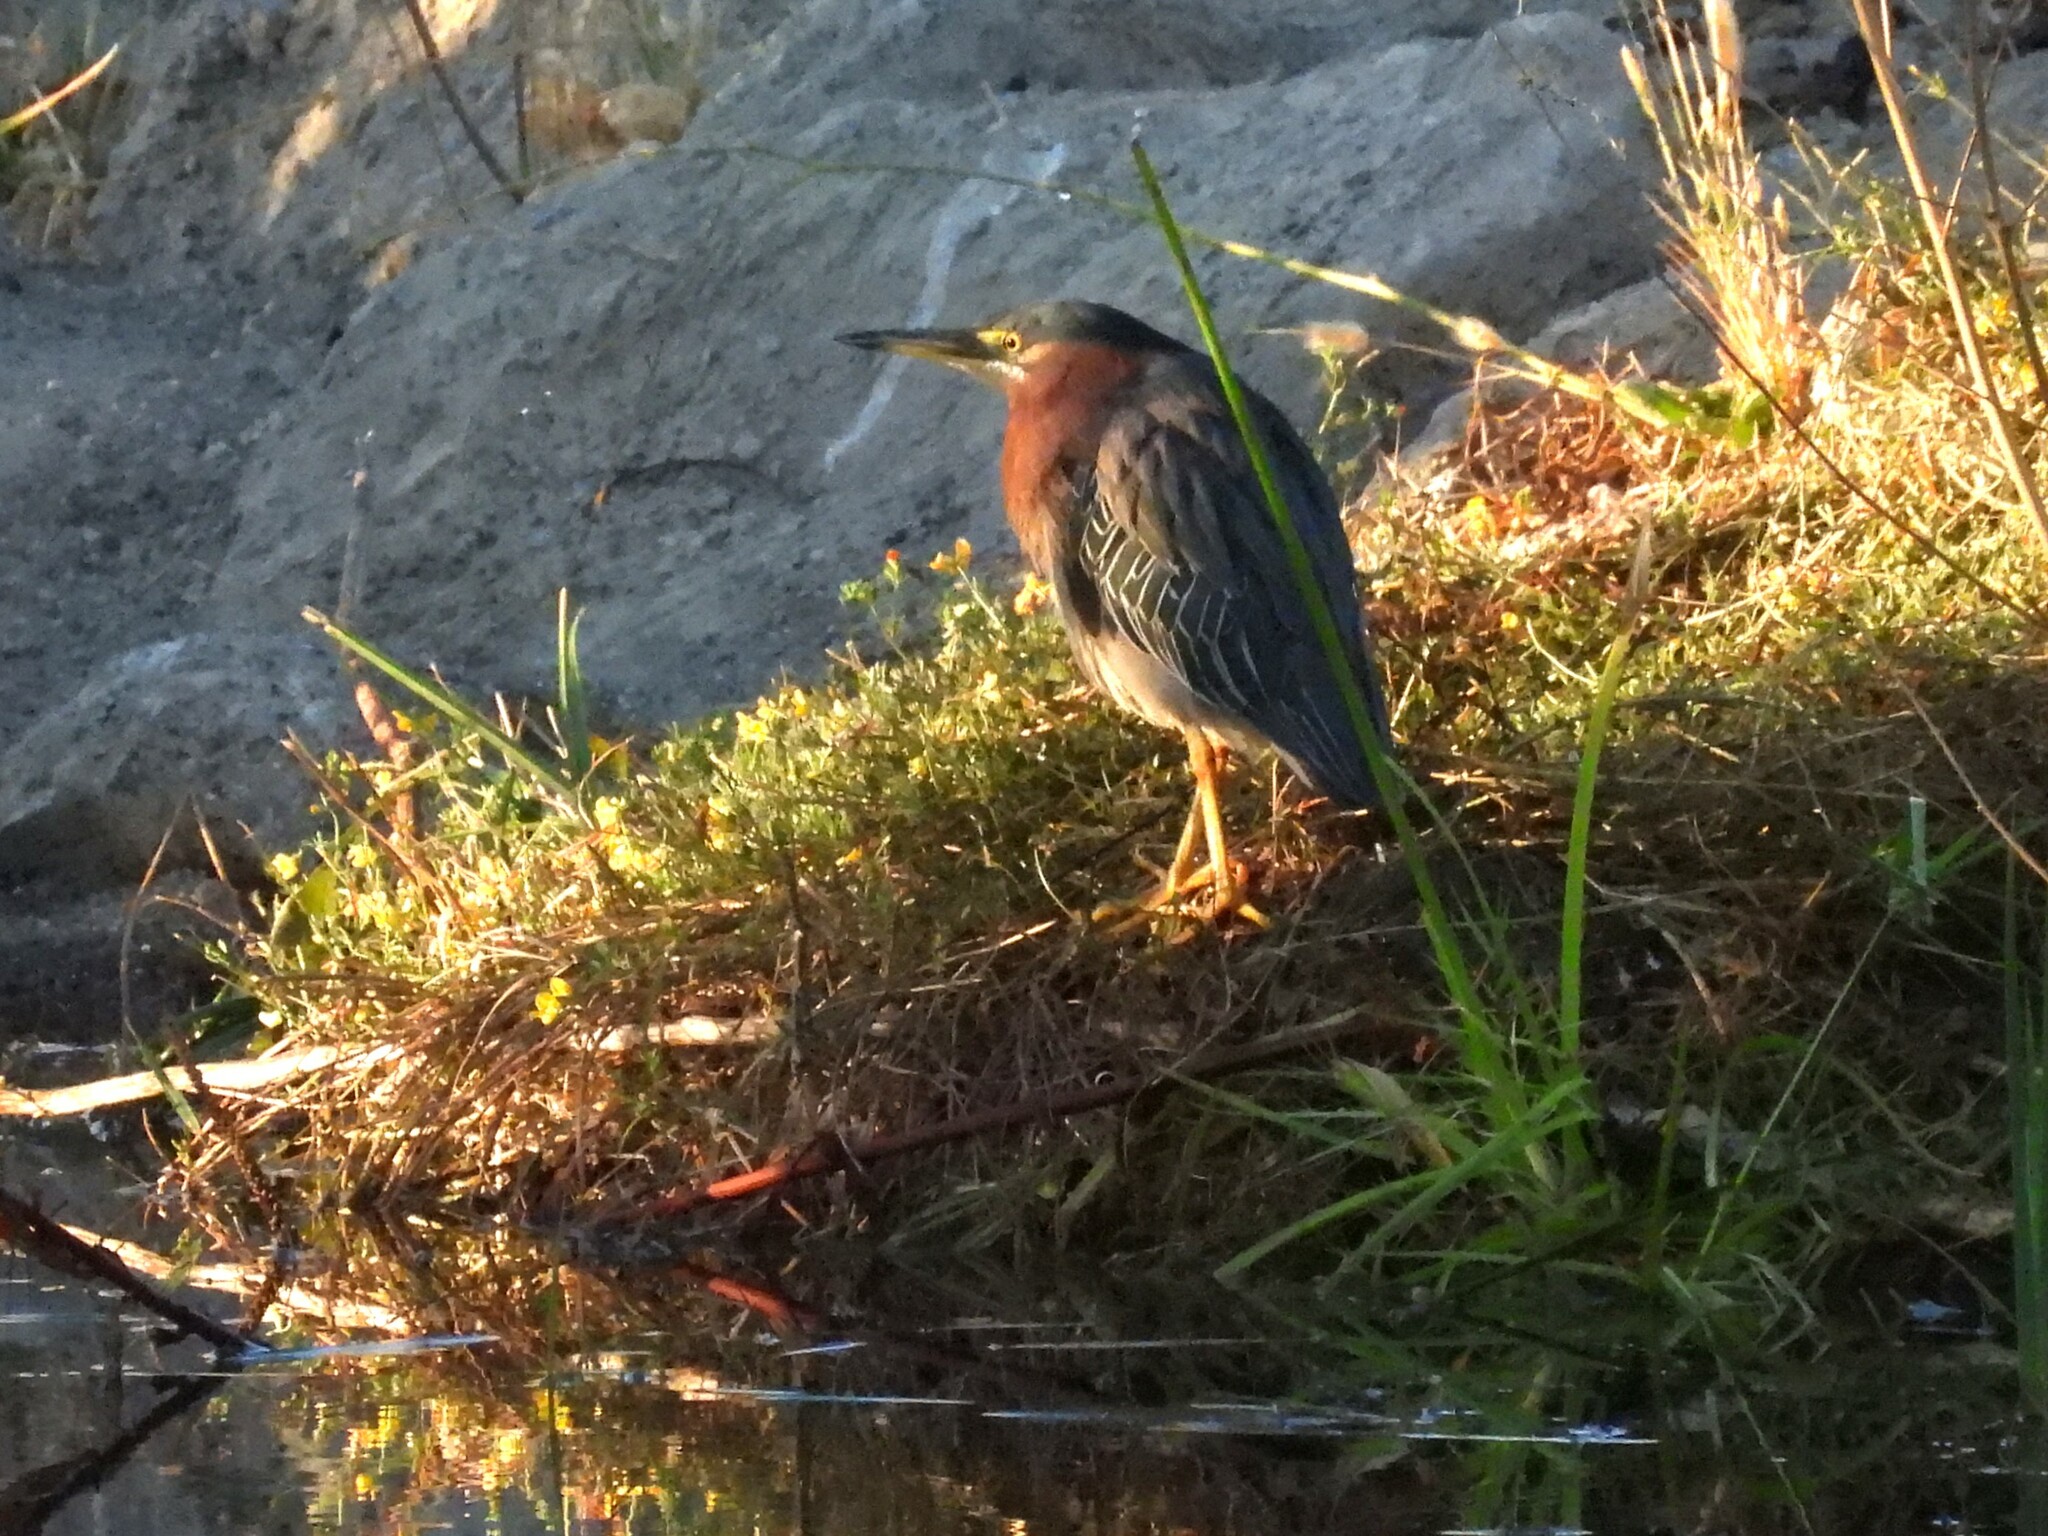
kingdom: Animalia
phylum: Chordata
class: Aves
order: Pelecaniformes
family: Ardeidae
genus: Butorides
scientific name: Butorides virescens
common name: Green heron
